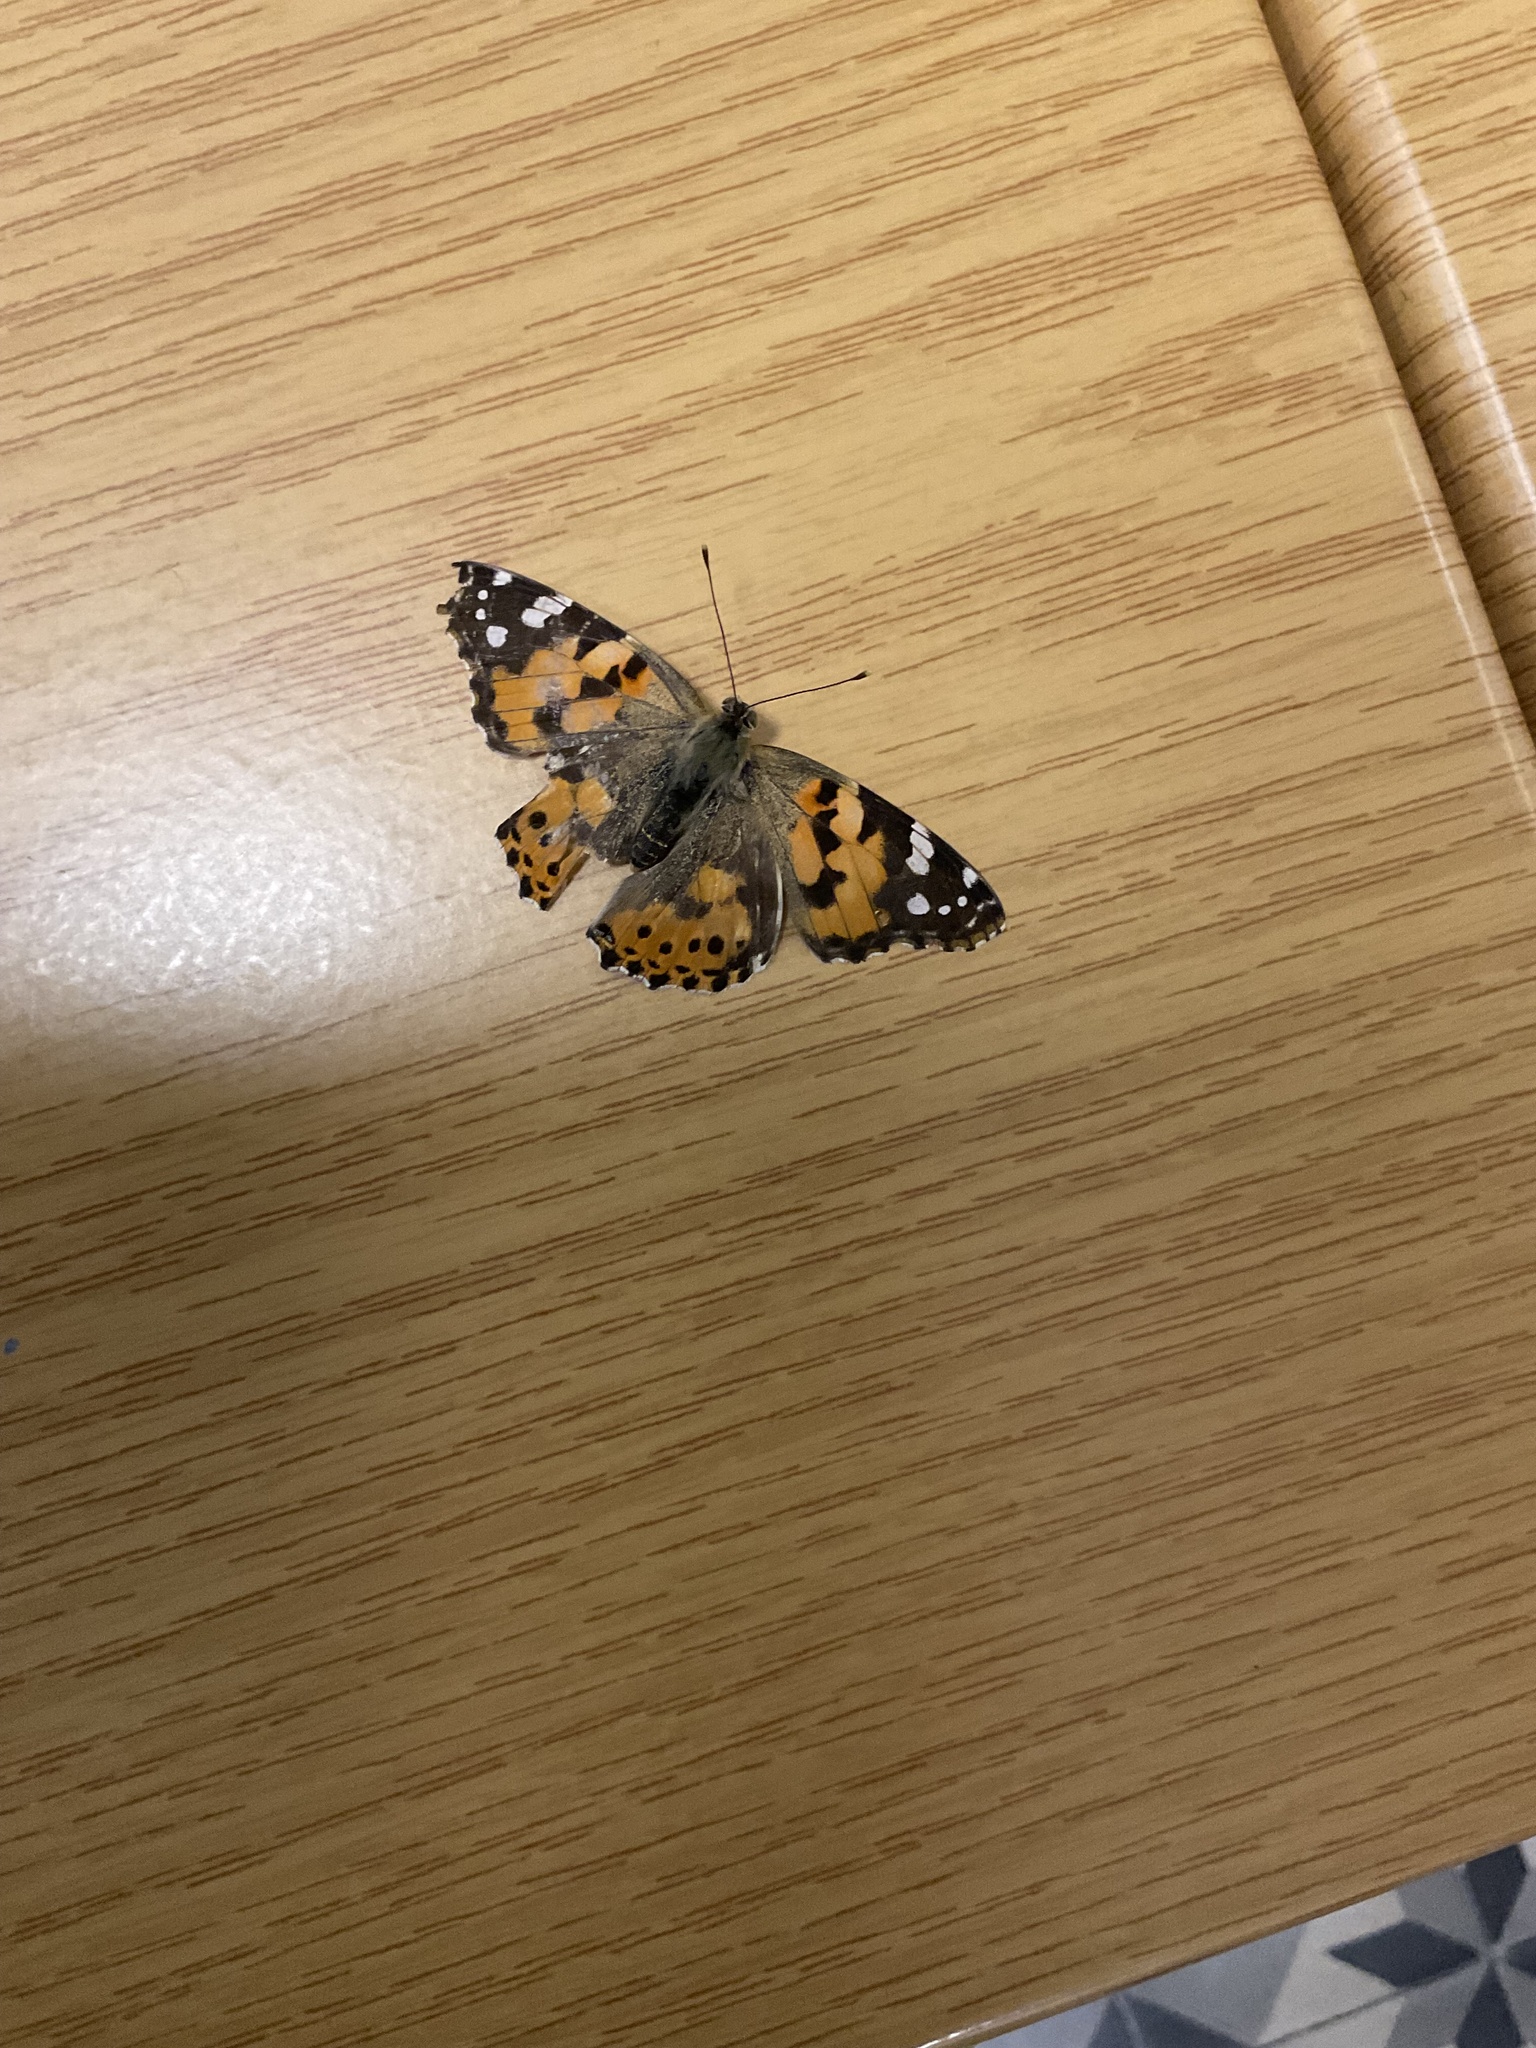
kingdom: Animalia
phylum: Arthropoda
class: Insecta
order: Lepidoptera
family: Nymphalidae
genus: Vanessa
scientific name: Vanessa cardui
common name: Painted lady
